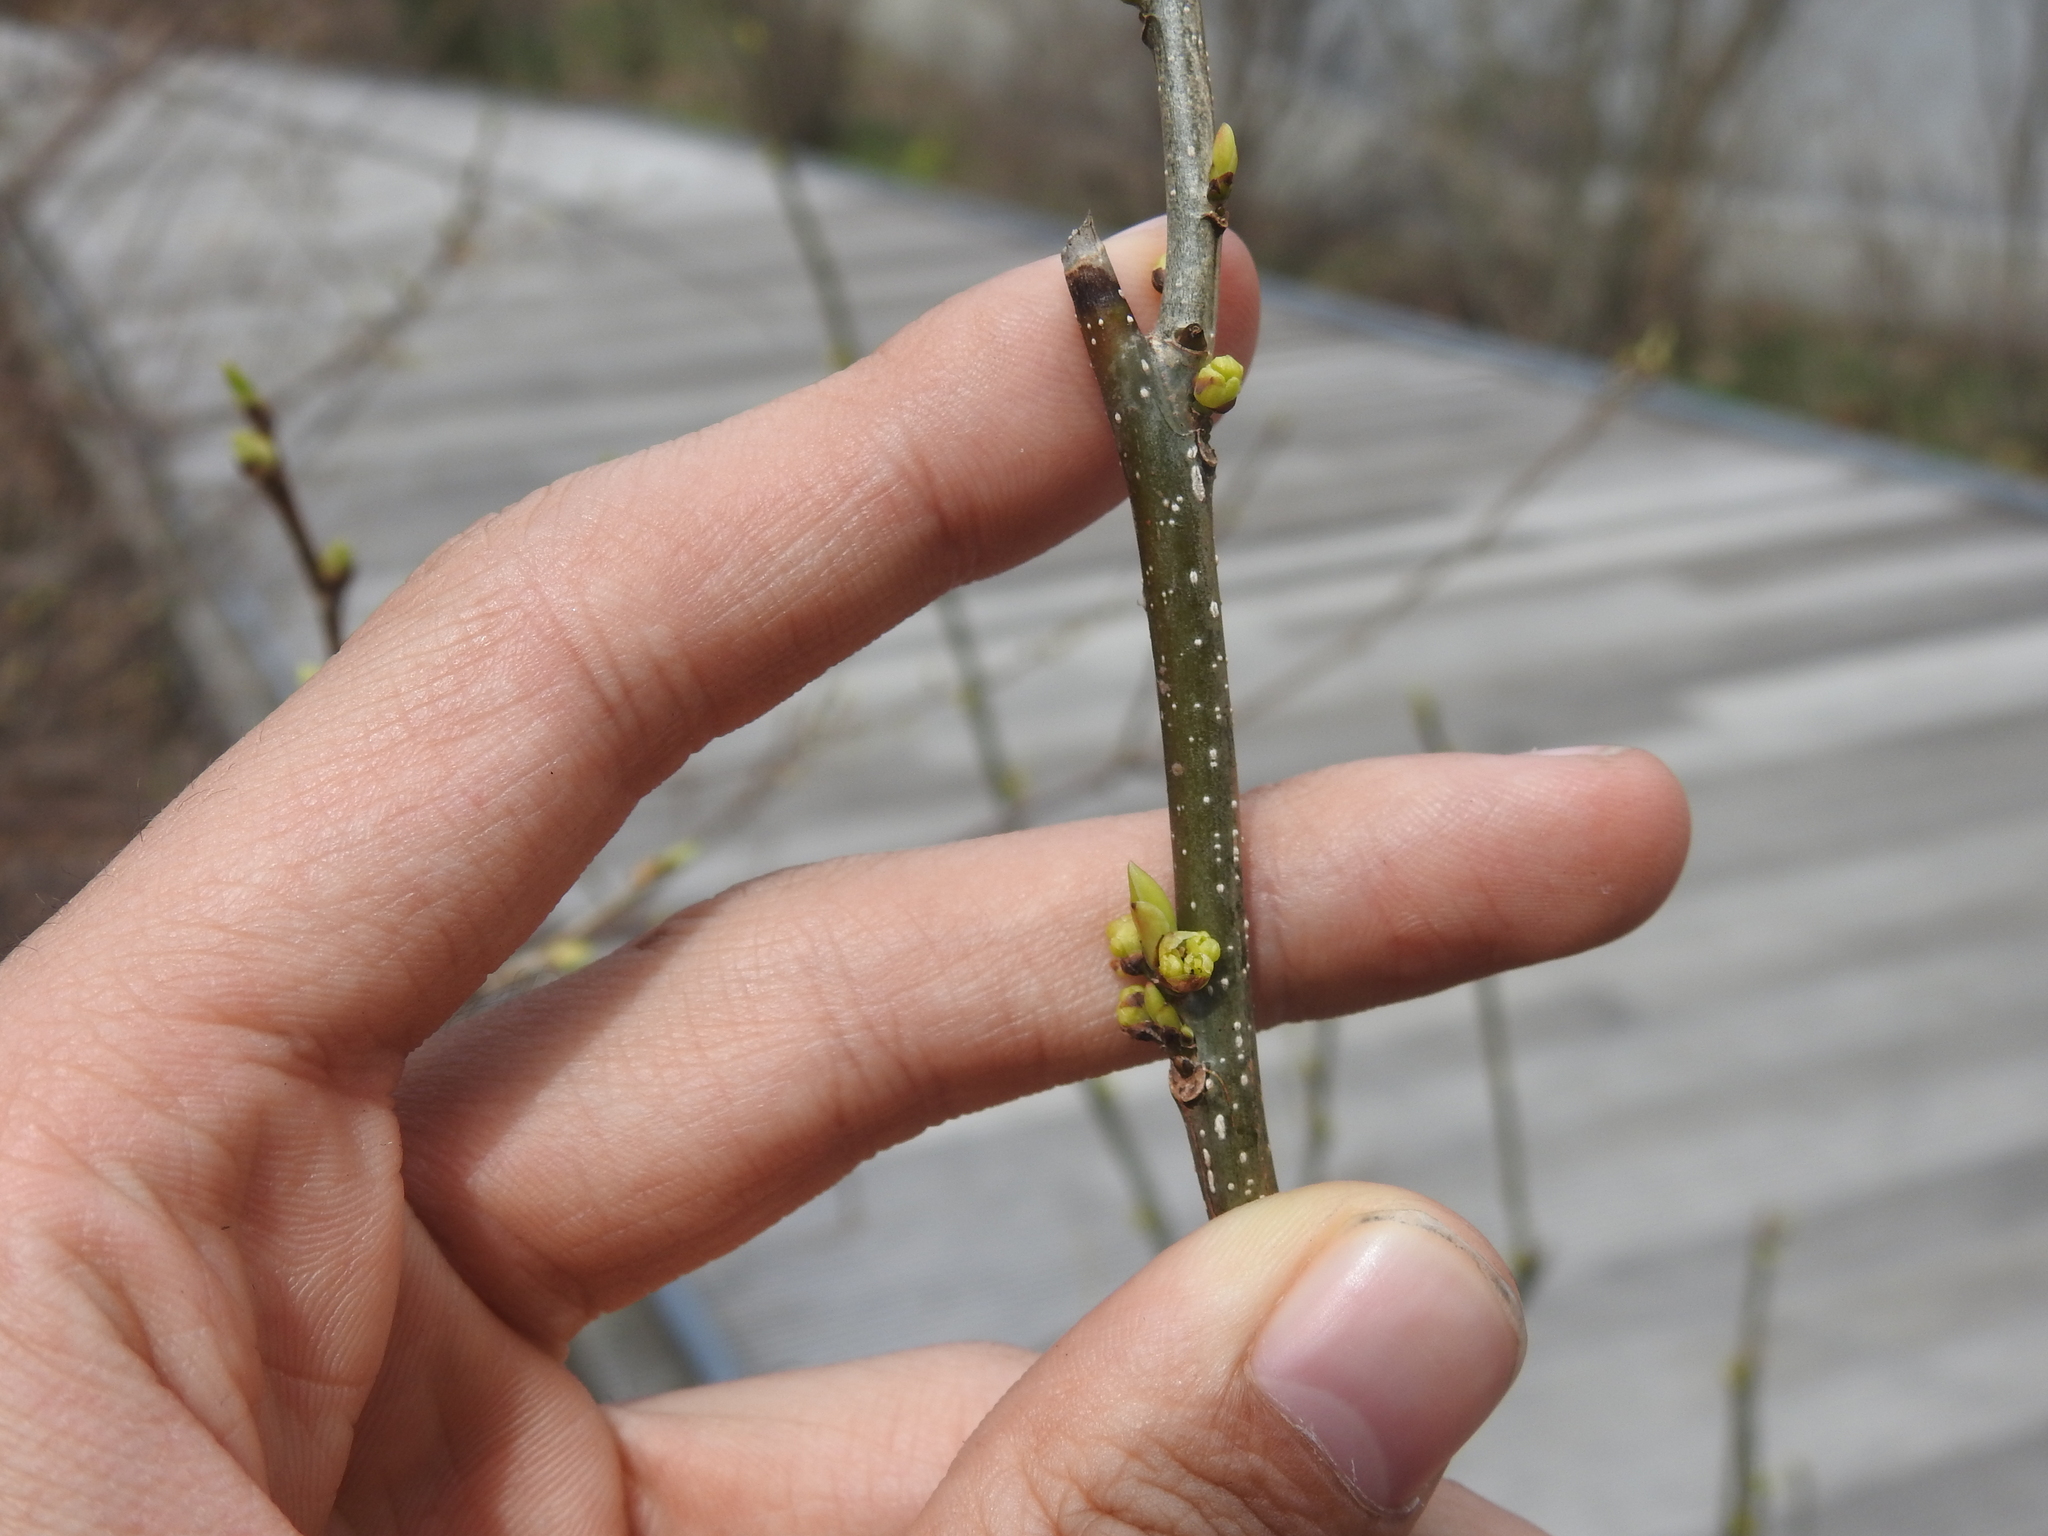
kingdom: Plantae
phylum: Tracheophyta
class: Magnoliopsida
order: Laurales
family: Lauraceae
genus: Lindera
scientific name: Lindera benzoin
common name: Spicebush
